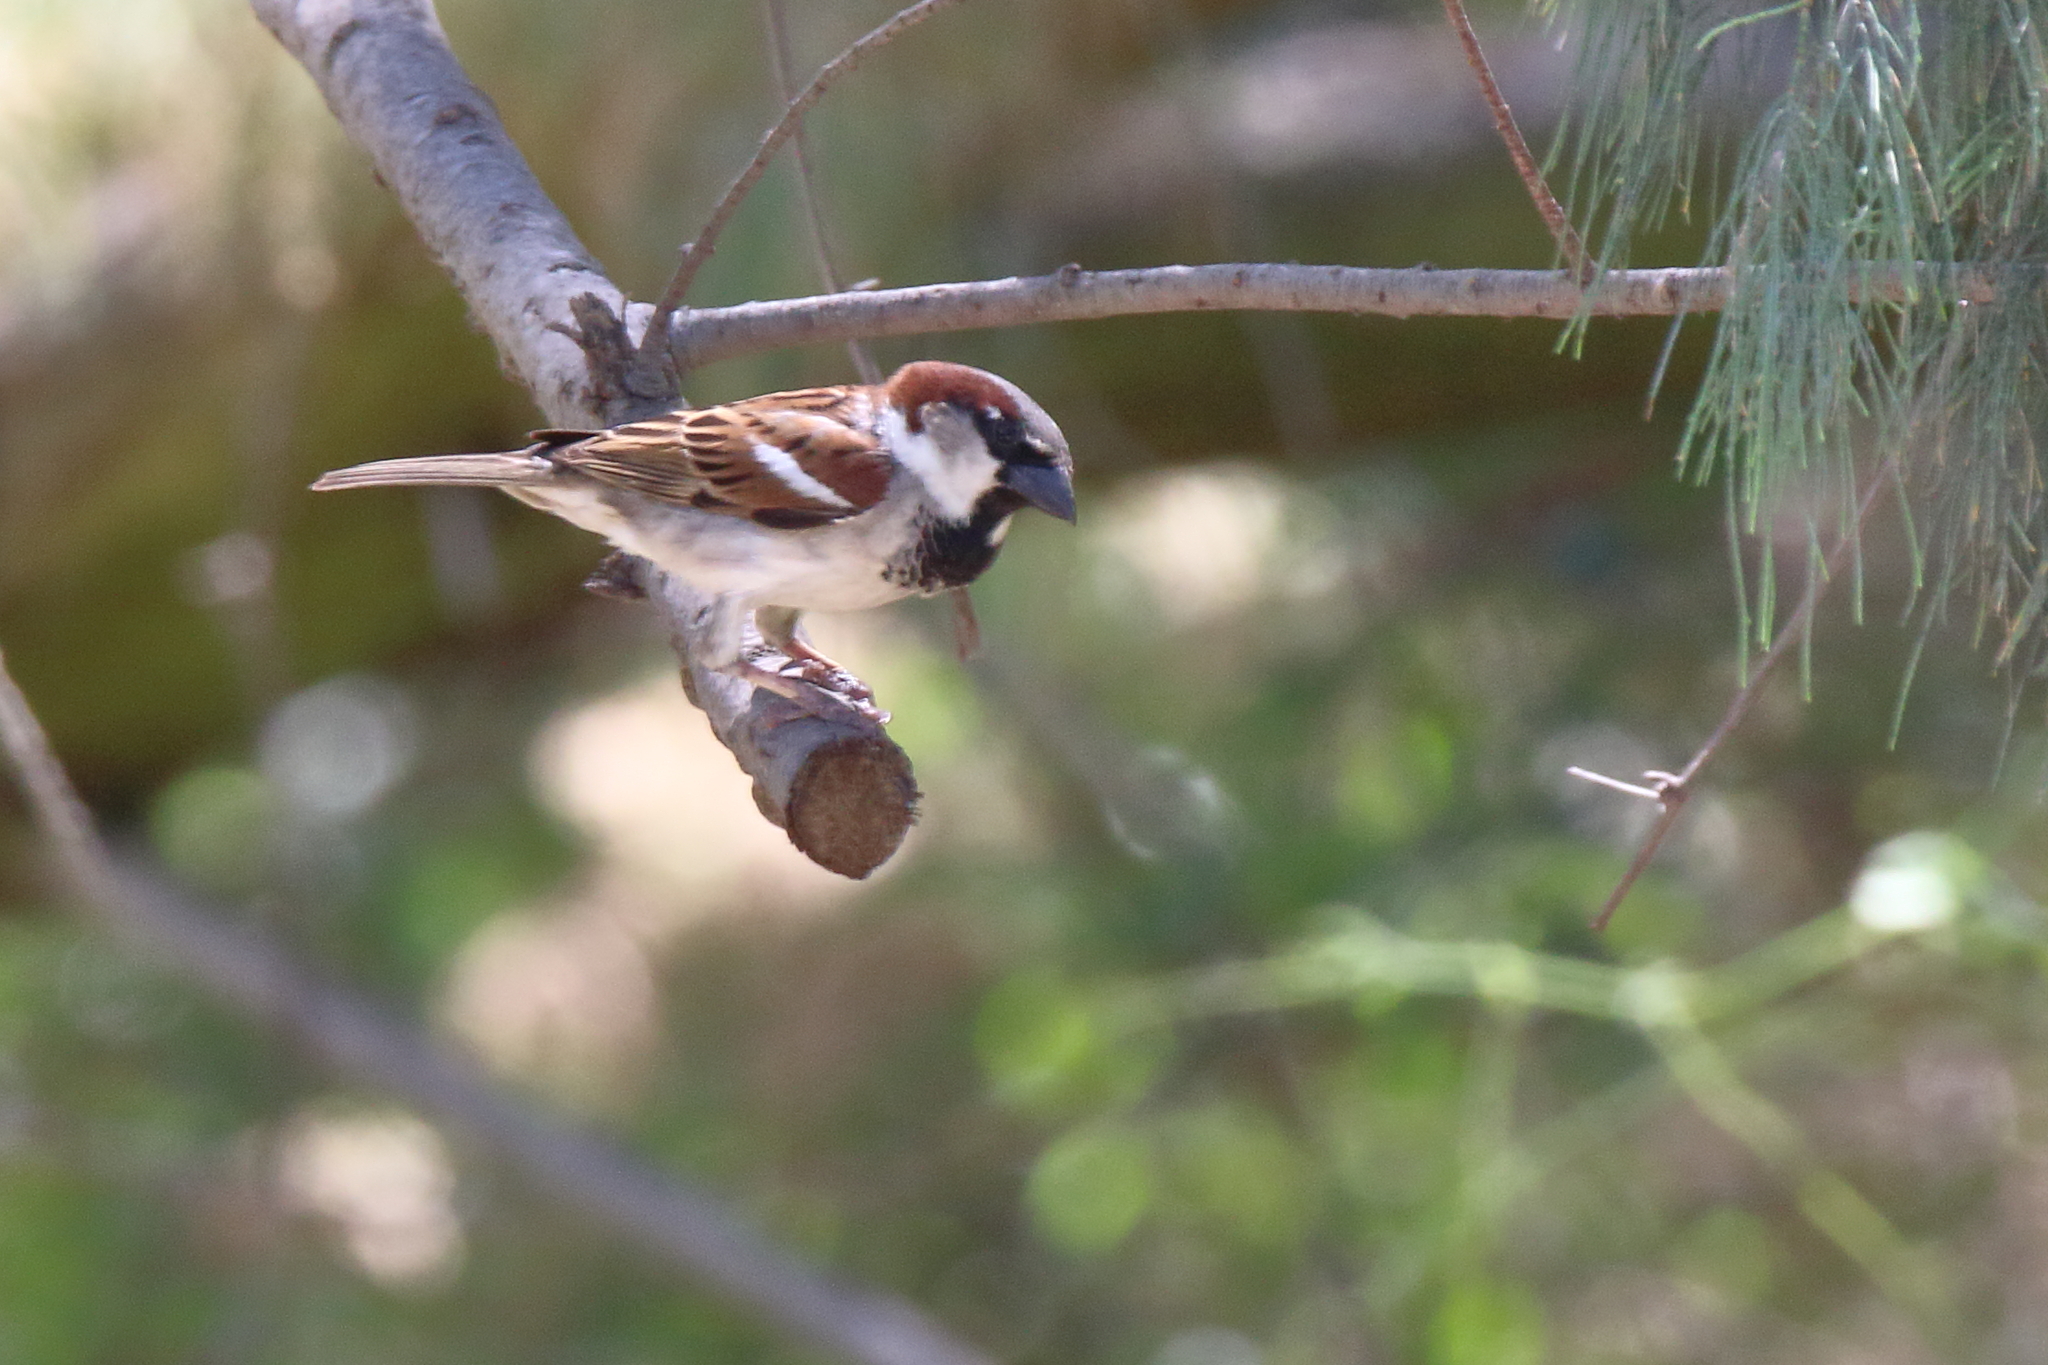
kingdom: Animalia
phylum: Chordata
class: Aves
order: Passeriformes
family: Passeridae
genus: Passer
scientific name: Passer domesticus
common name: House sparrow
